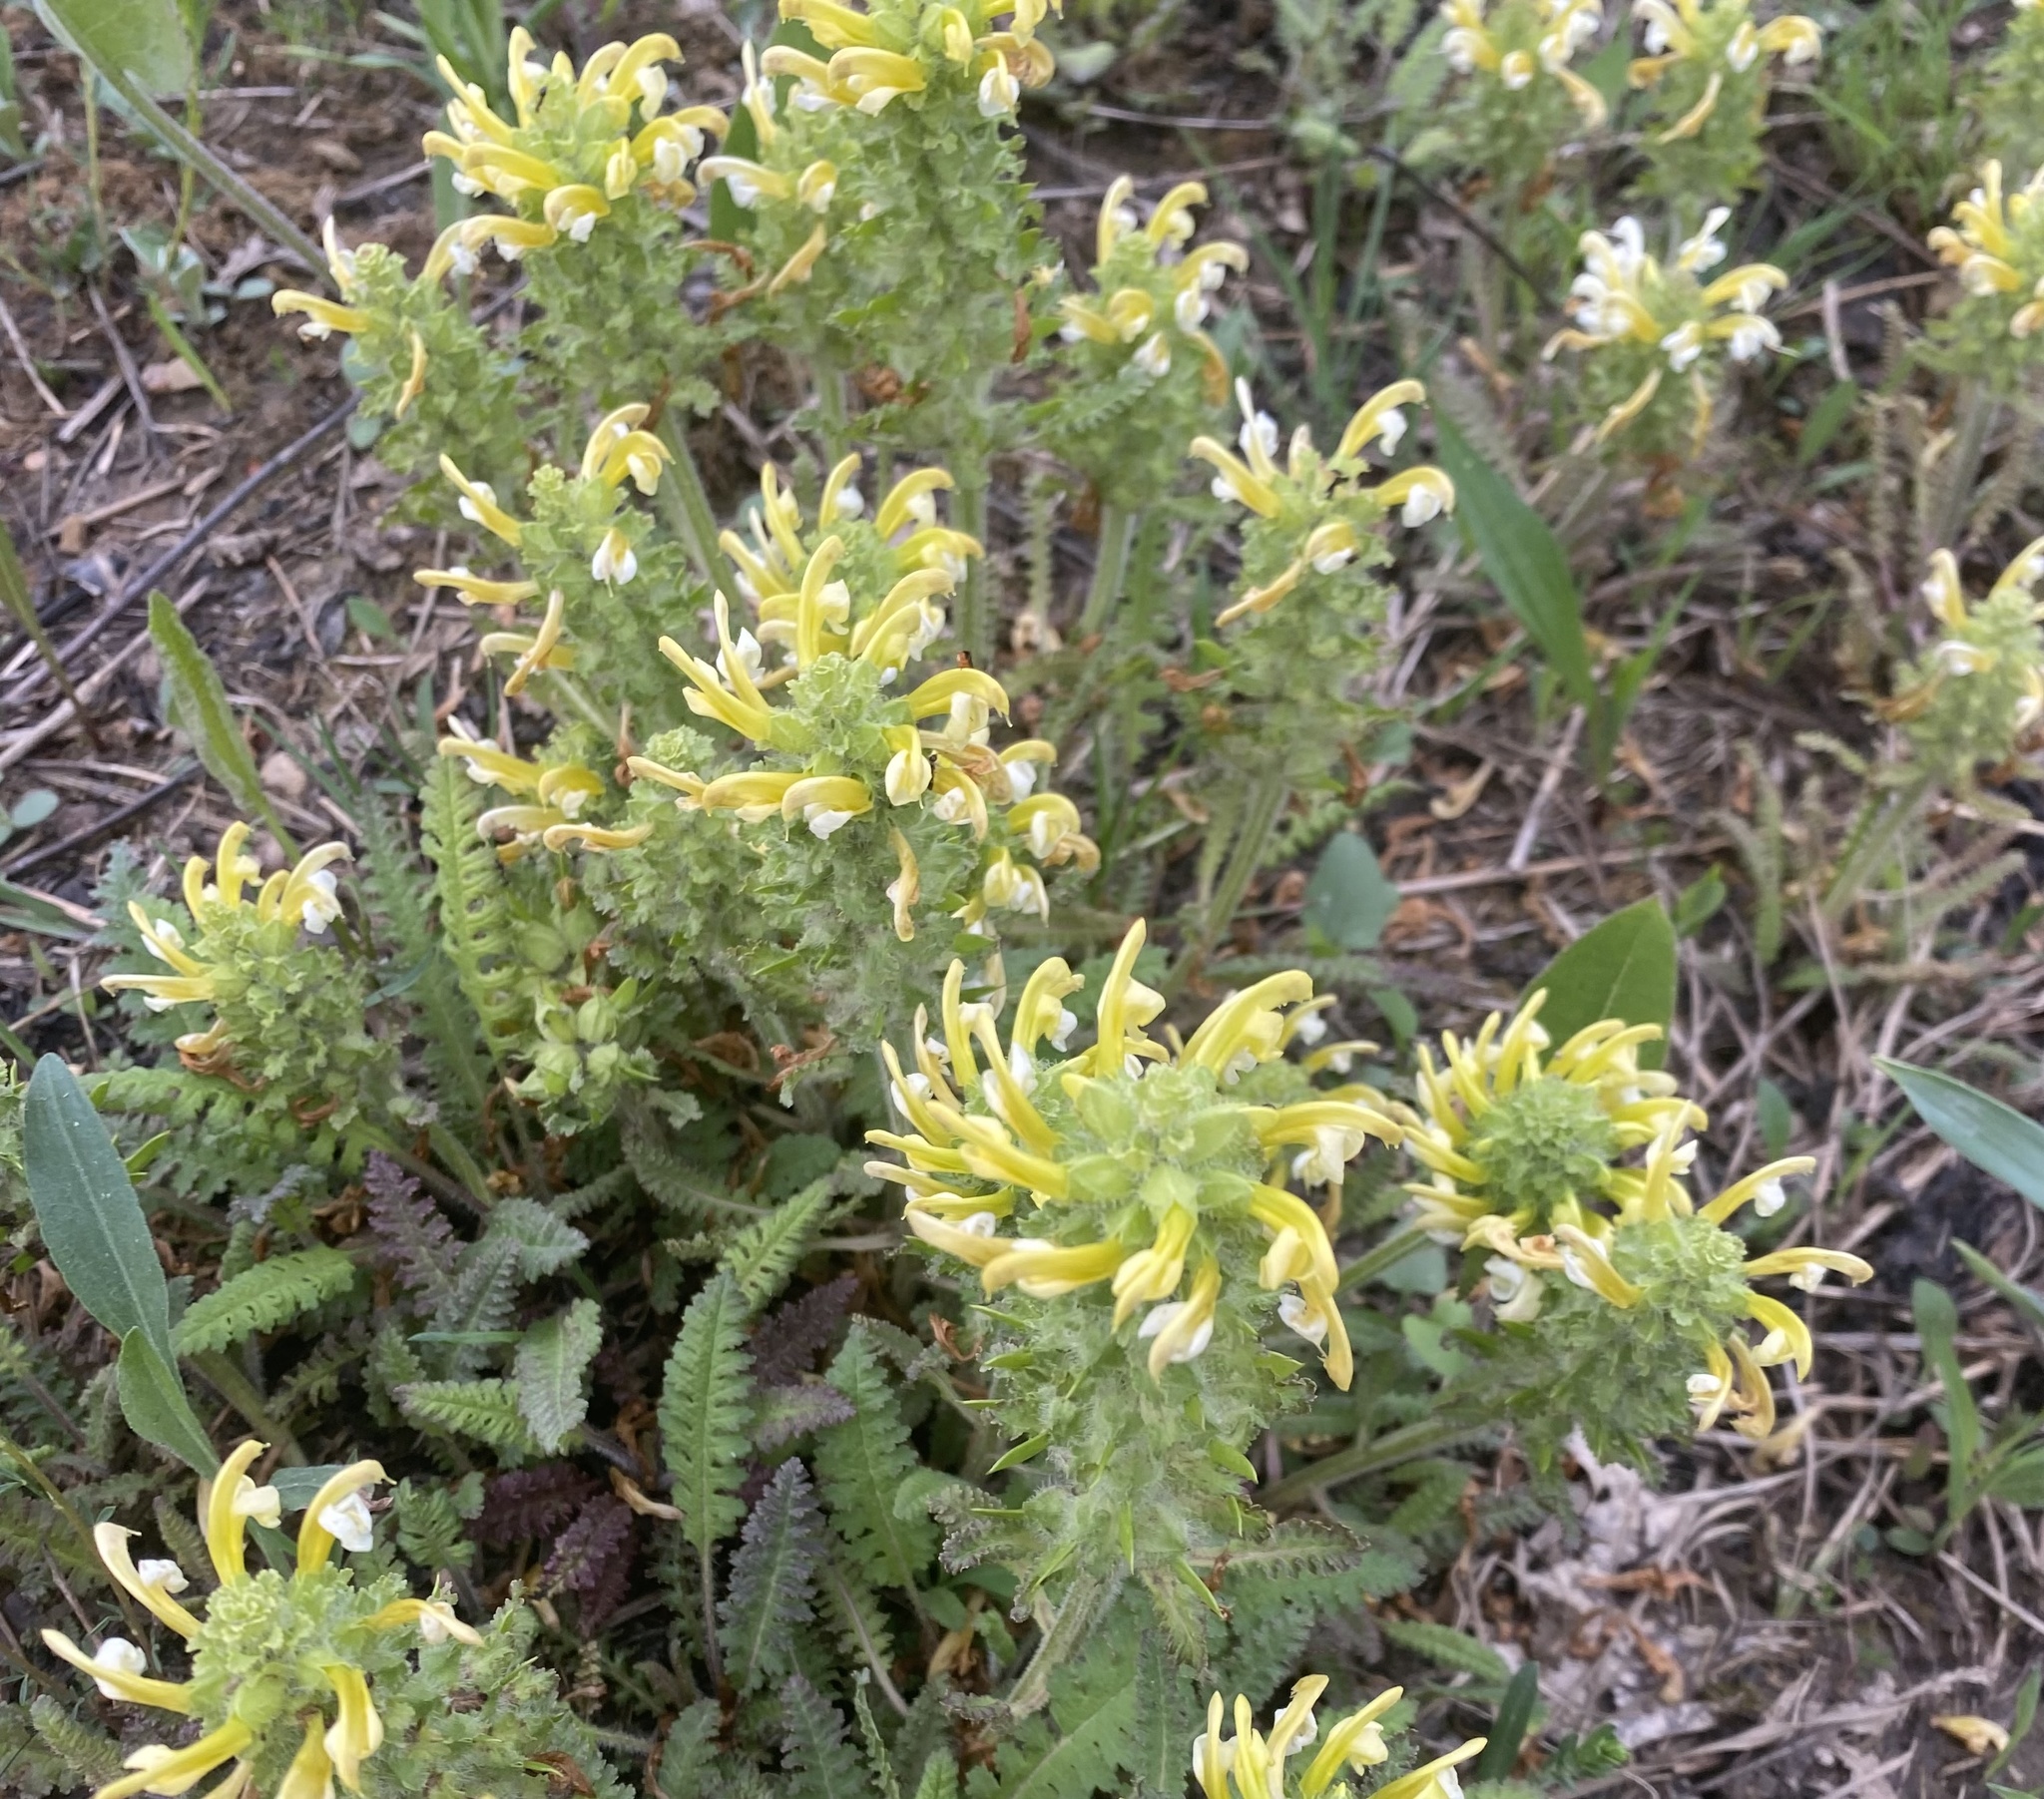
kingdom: Plantae
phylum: Tracheophyta
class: Magnoliopsida
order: Lamiales
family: Orobanchaceae
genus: Pedicularis
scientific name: Pedicularis canadensis
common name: Early lousewort
